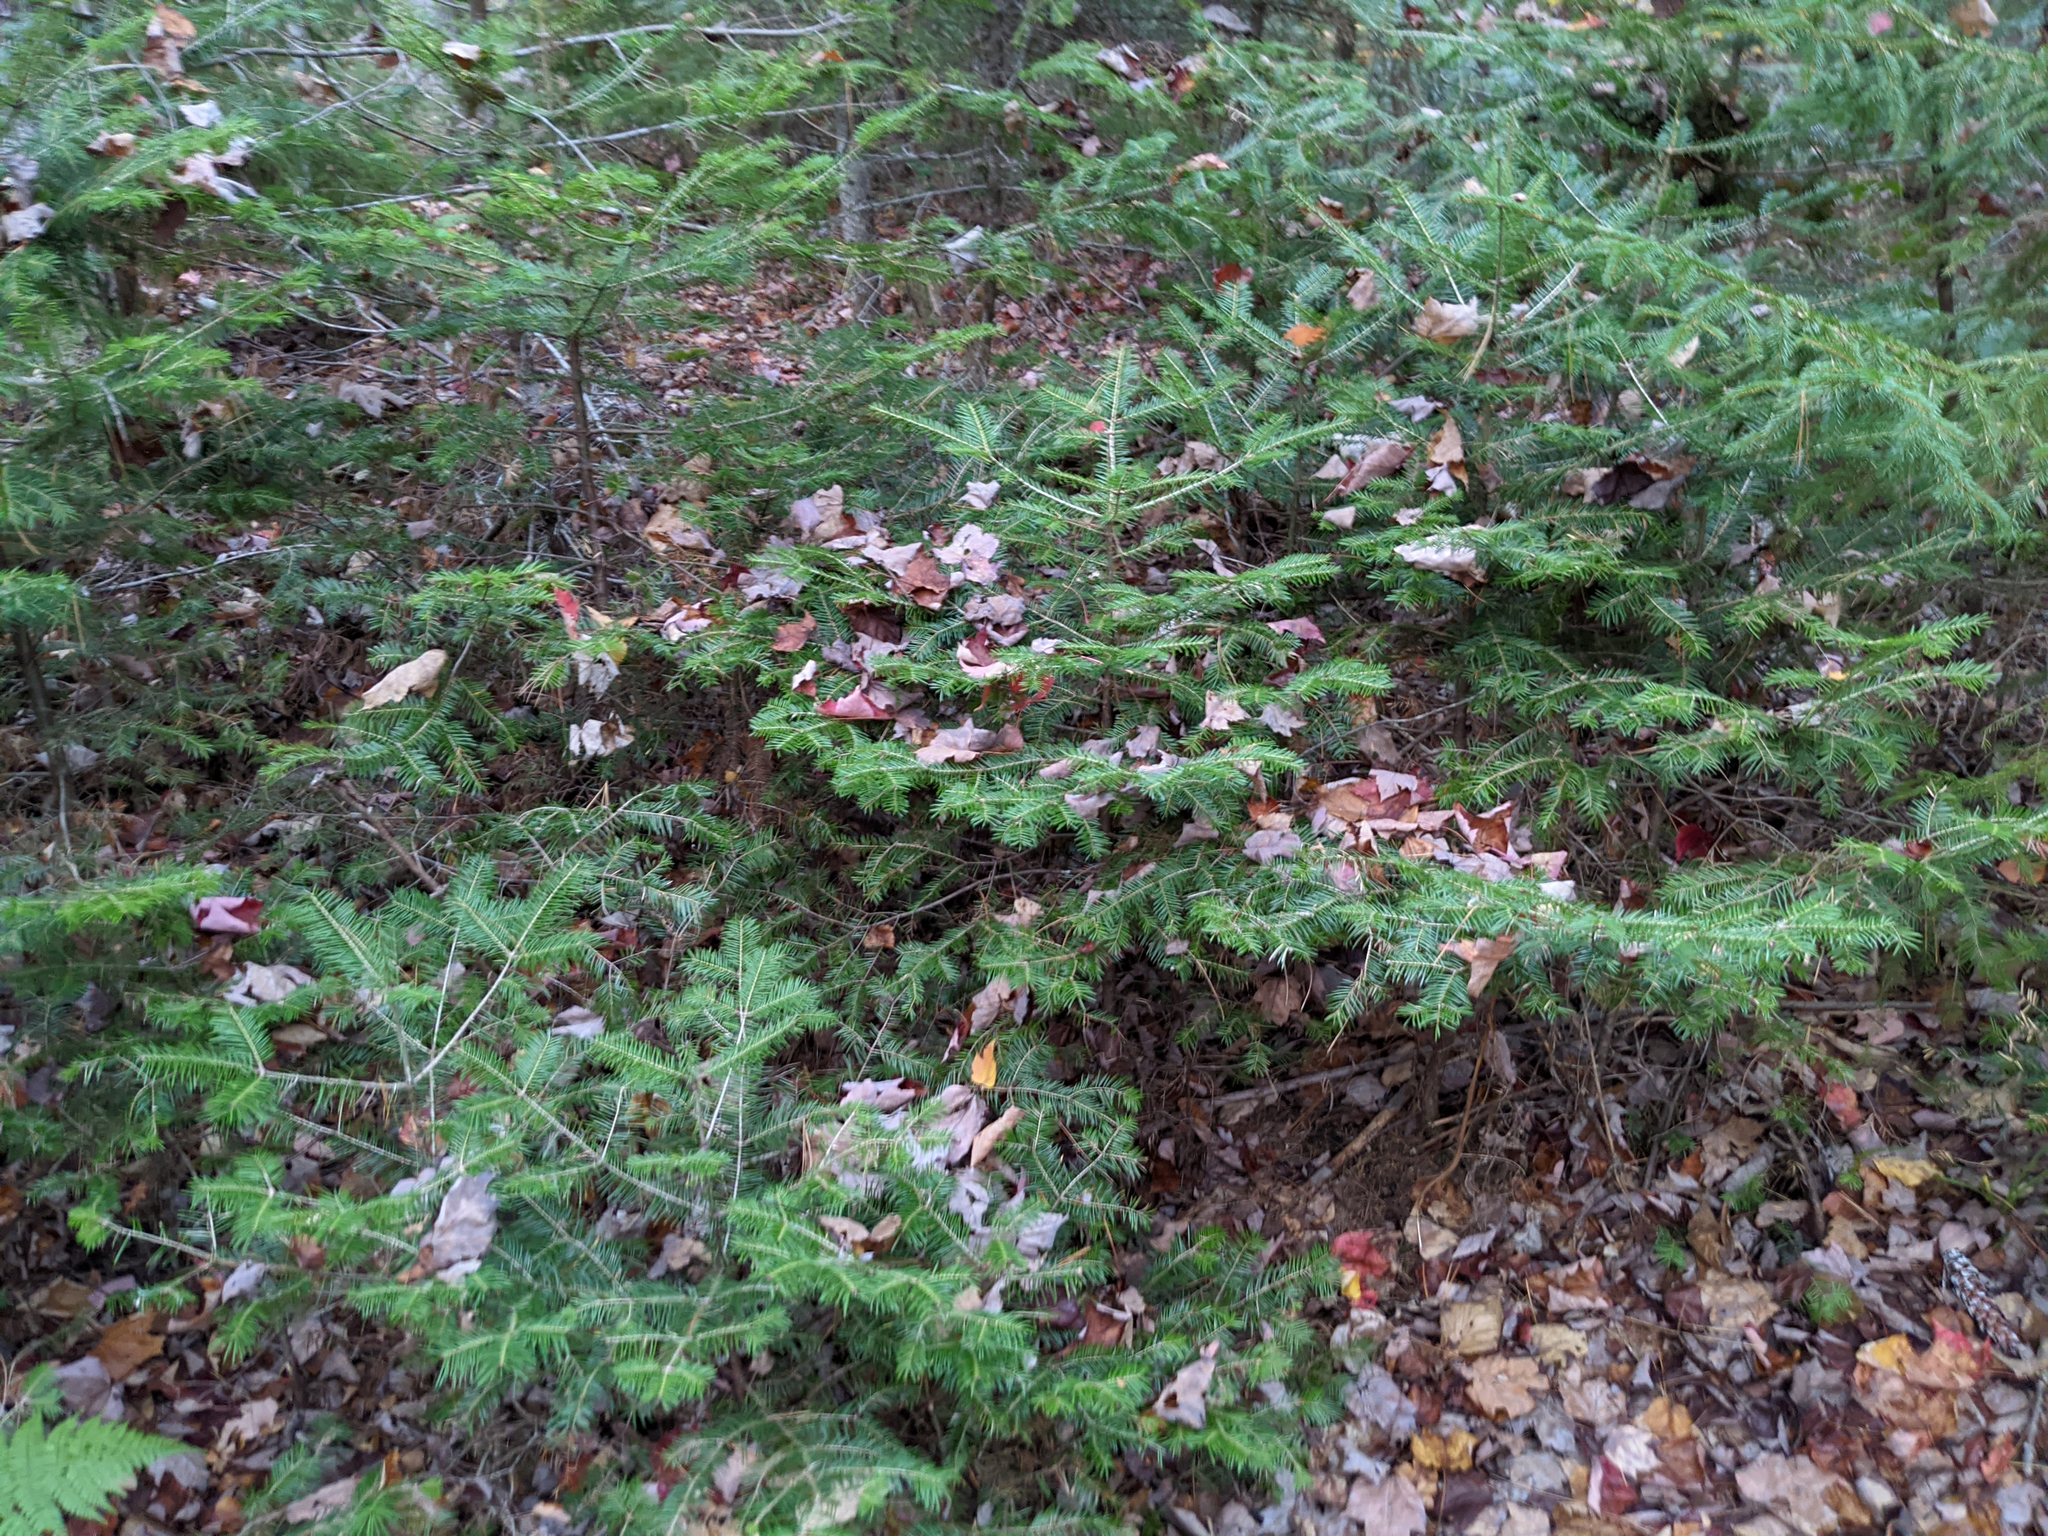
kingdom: Plantae
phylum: Tracheophyta
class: Pinopsida
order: Pinales
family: Pinaceae
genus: Abies
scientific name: Abies balsamea
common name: Balsam fir
